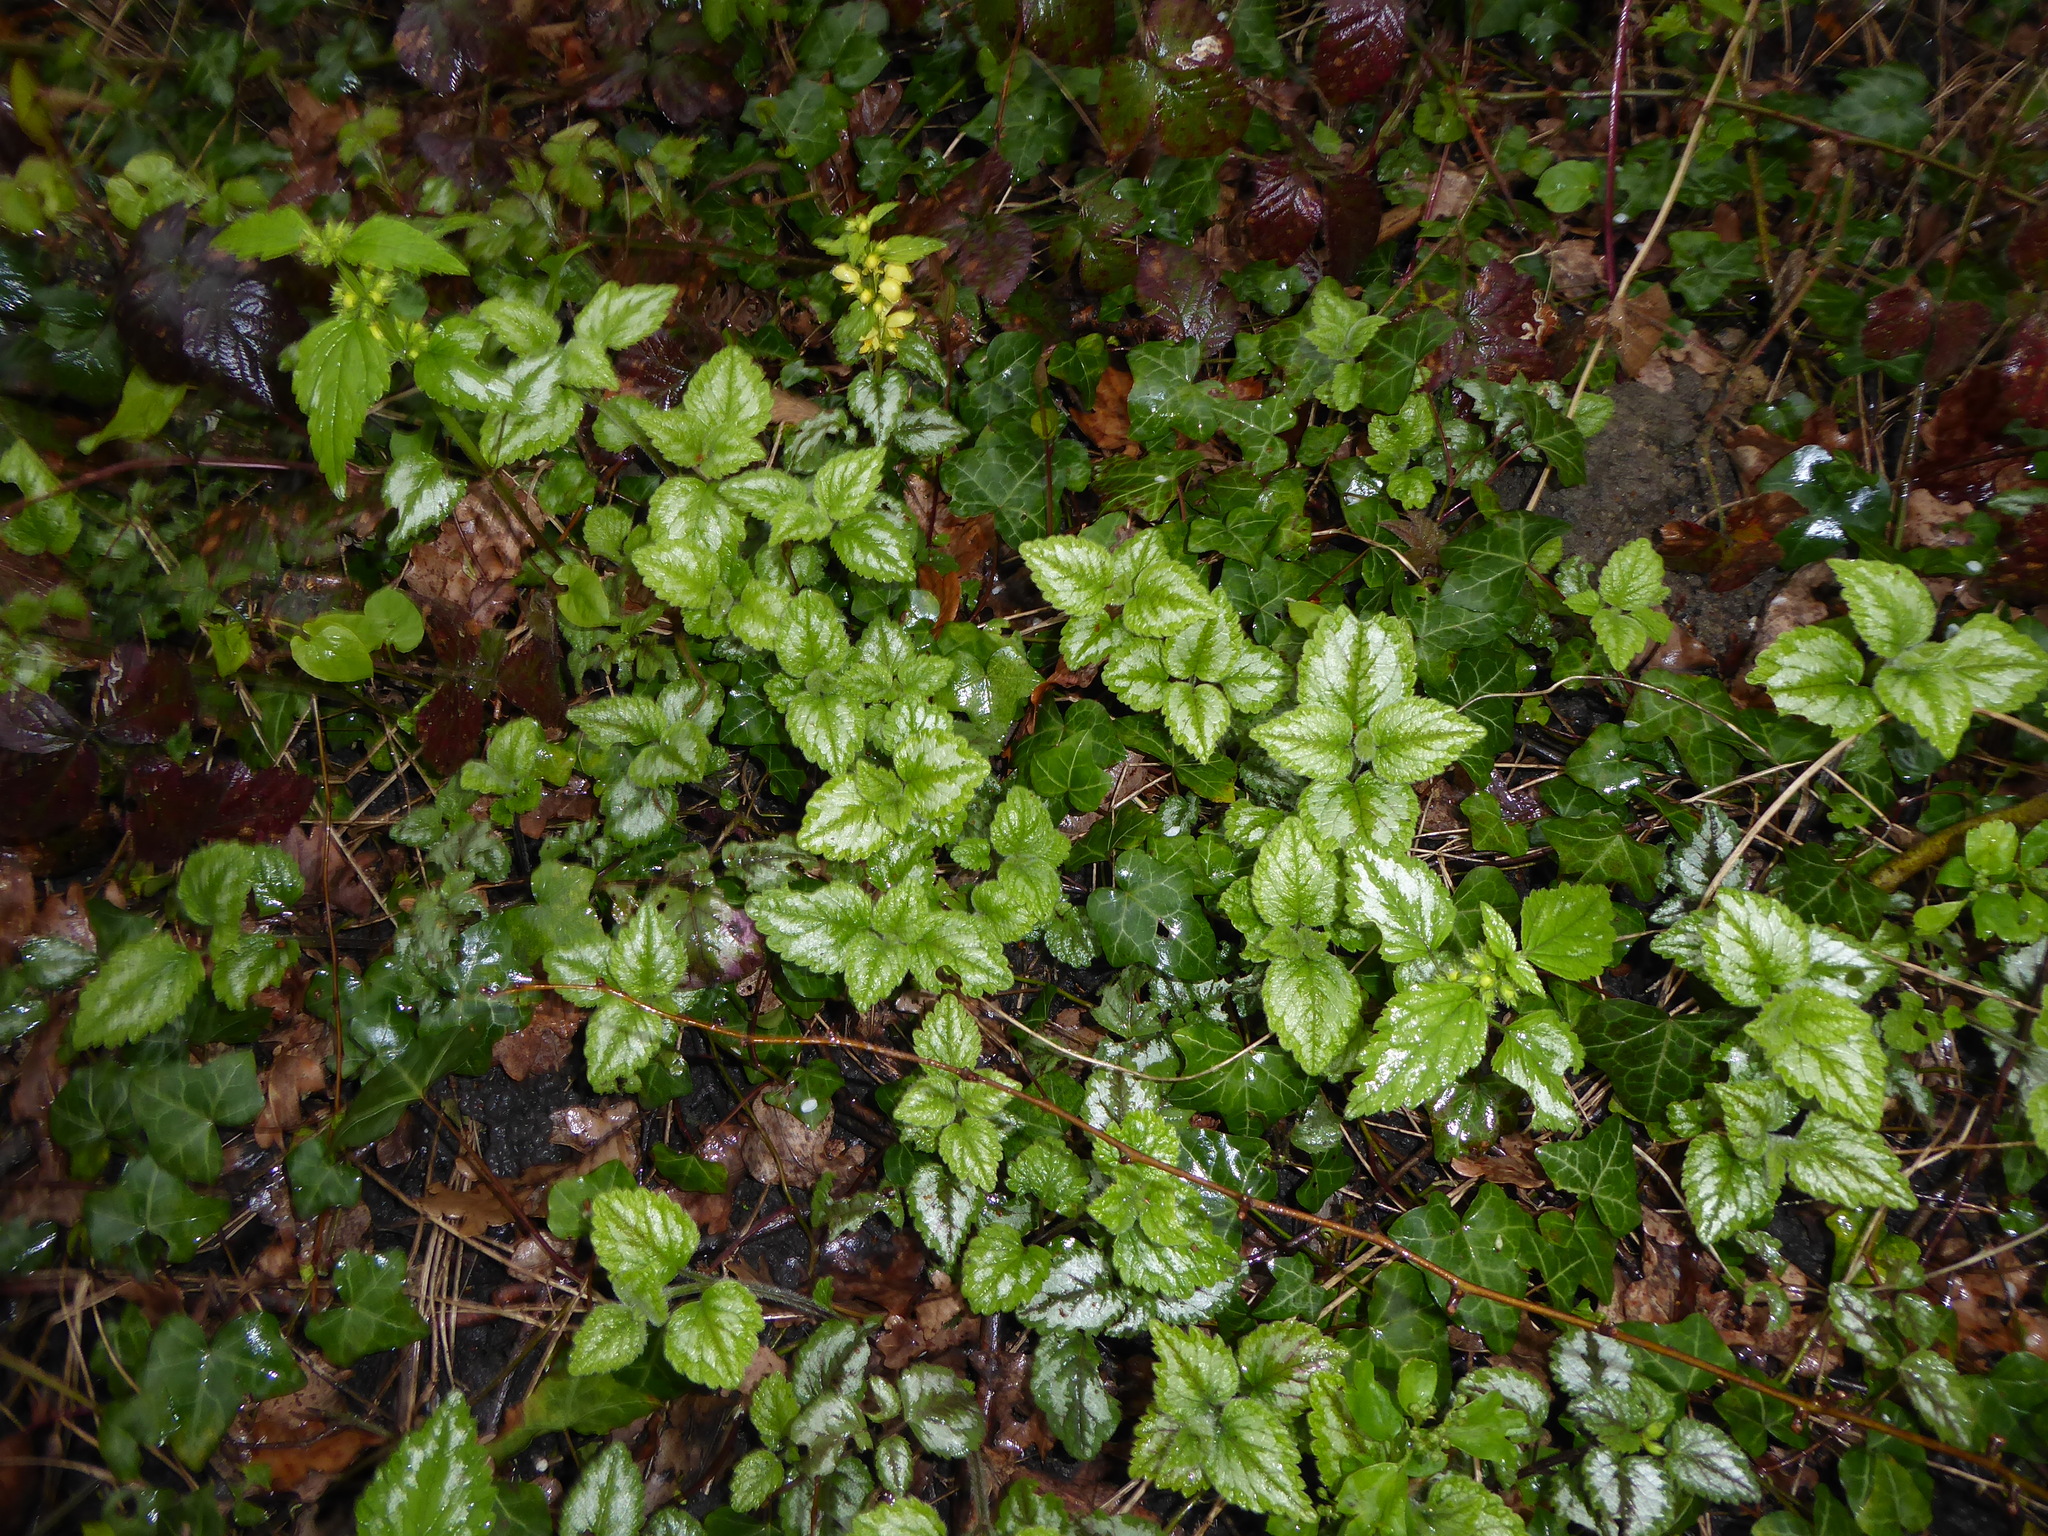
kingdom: Plantae
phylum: Tracheophyta
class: Magnoliopsida
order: Lamiales
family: Lamiaceae
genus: Lamium
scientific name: Lamium galeobdolon
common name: Yellow archangel
